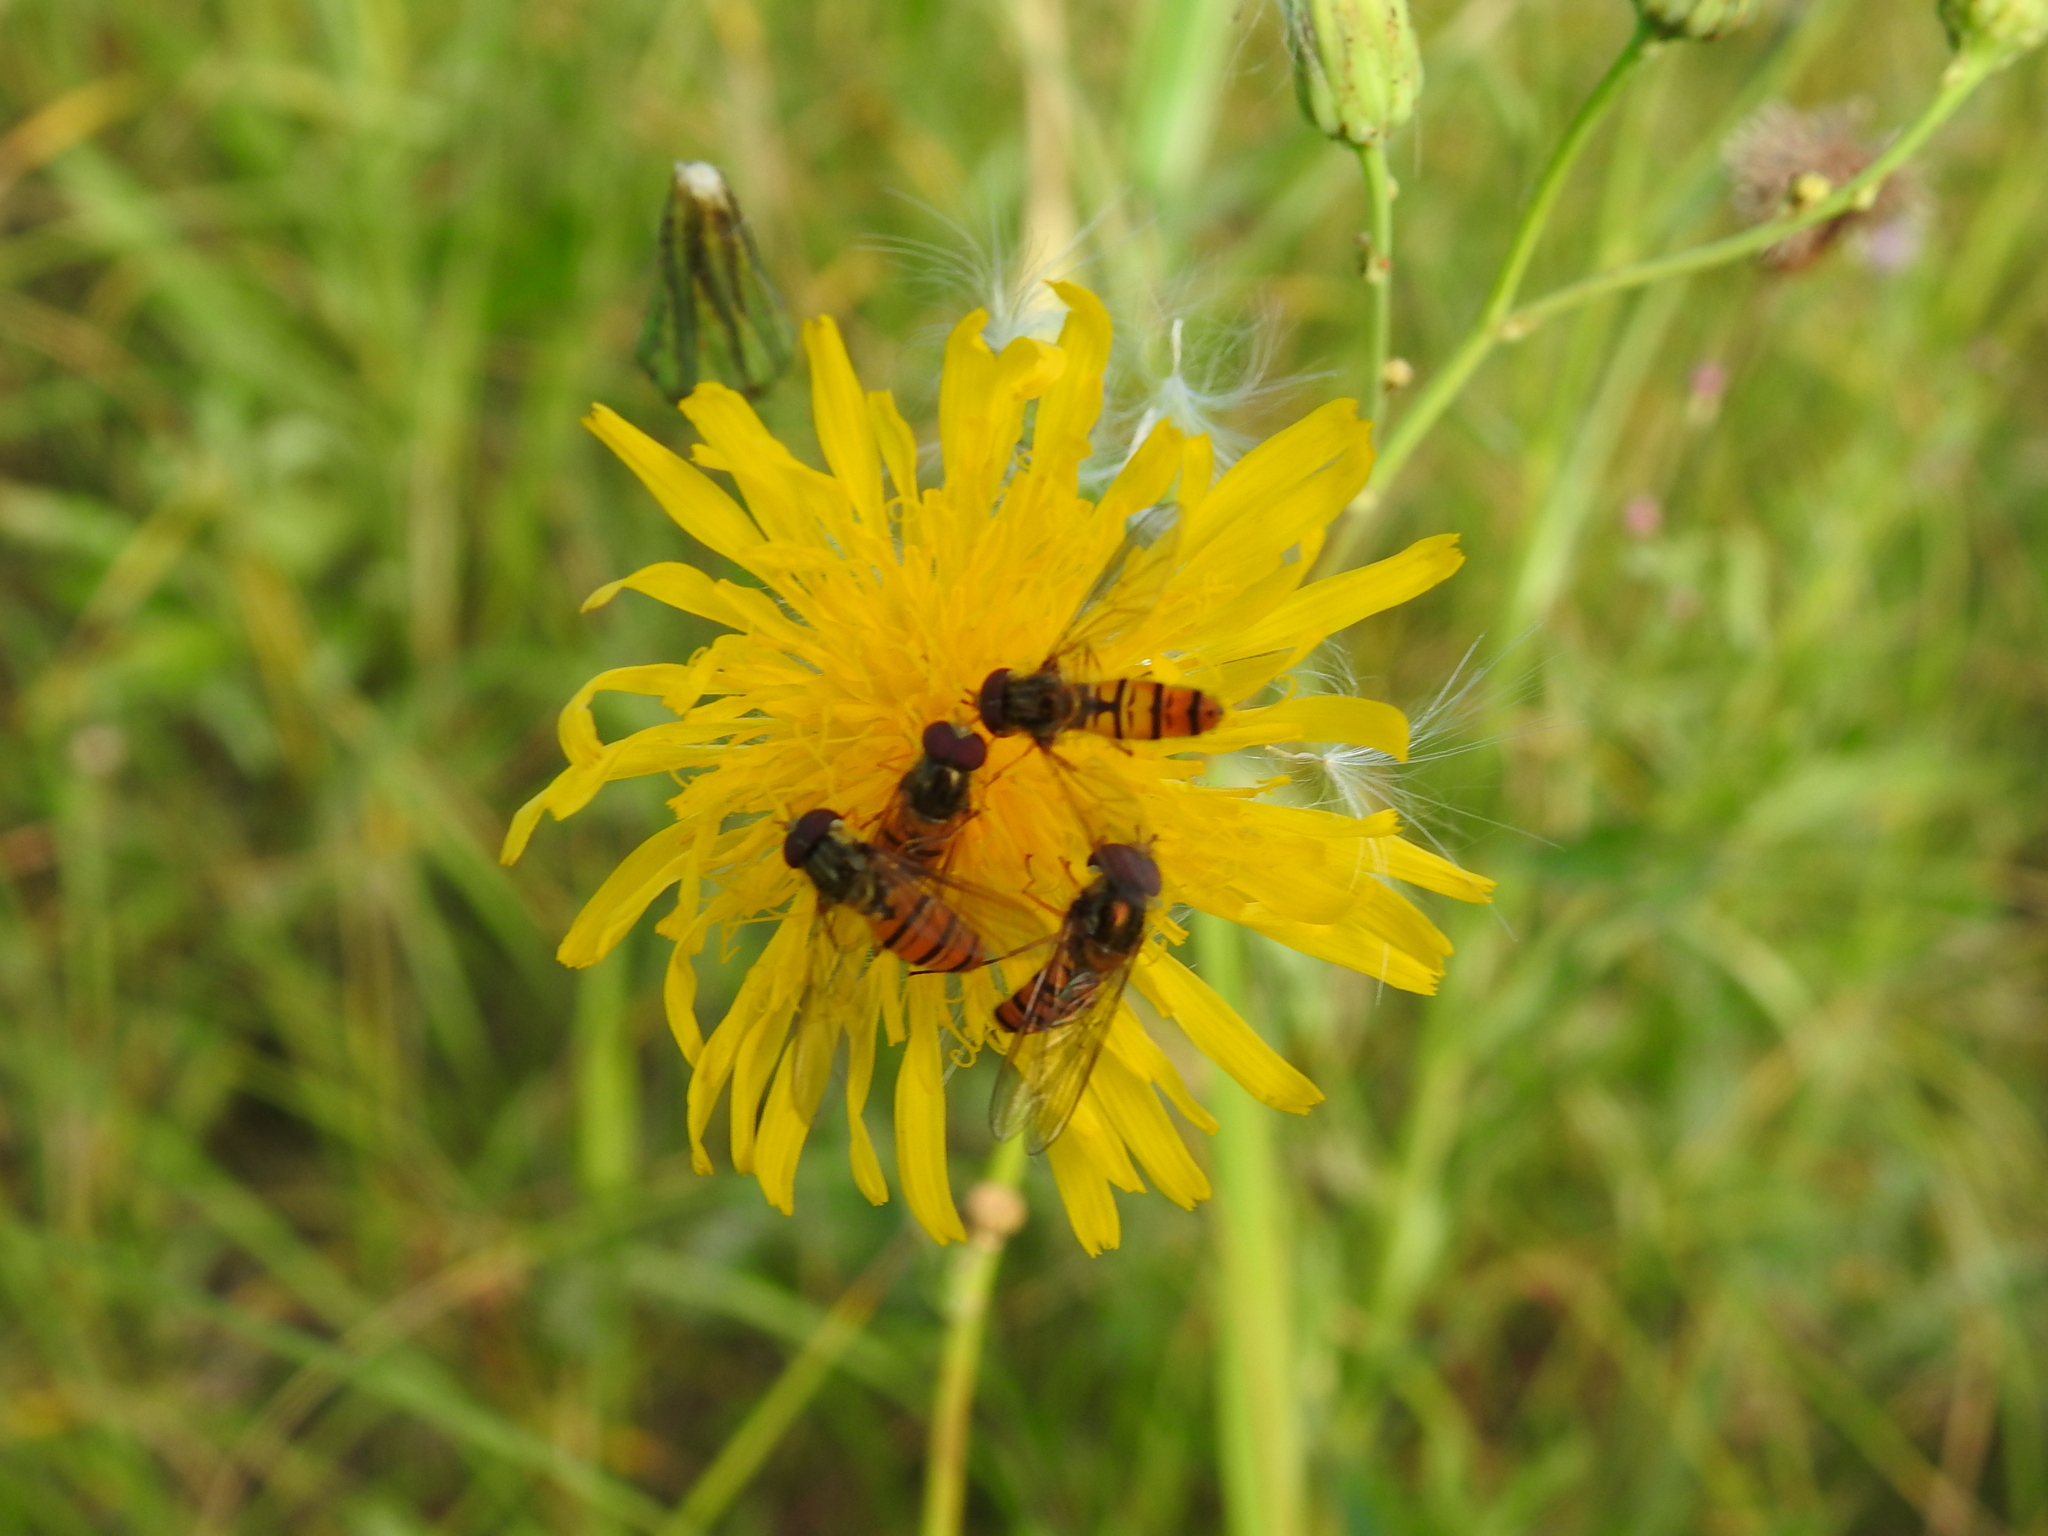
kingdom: Animalia
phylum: Arthropoda
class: Insecta
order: Diptera
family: Syrphidae
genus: Episyrphus
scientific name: Episyrphus balteatus
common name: Marmalade hoverfly
